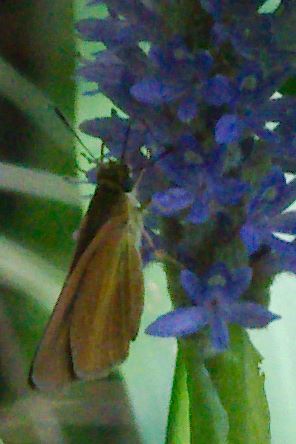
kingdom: Animalia
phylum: Arthropoda
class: Insecta
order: Lepidoptera
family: Hesperiidae
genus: Euphyes
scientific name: Euphyes dukesi
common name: Dukes' skipper
